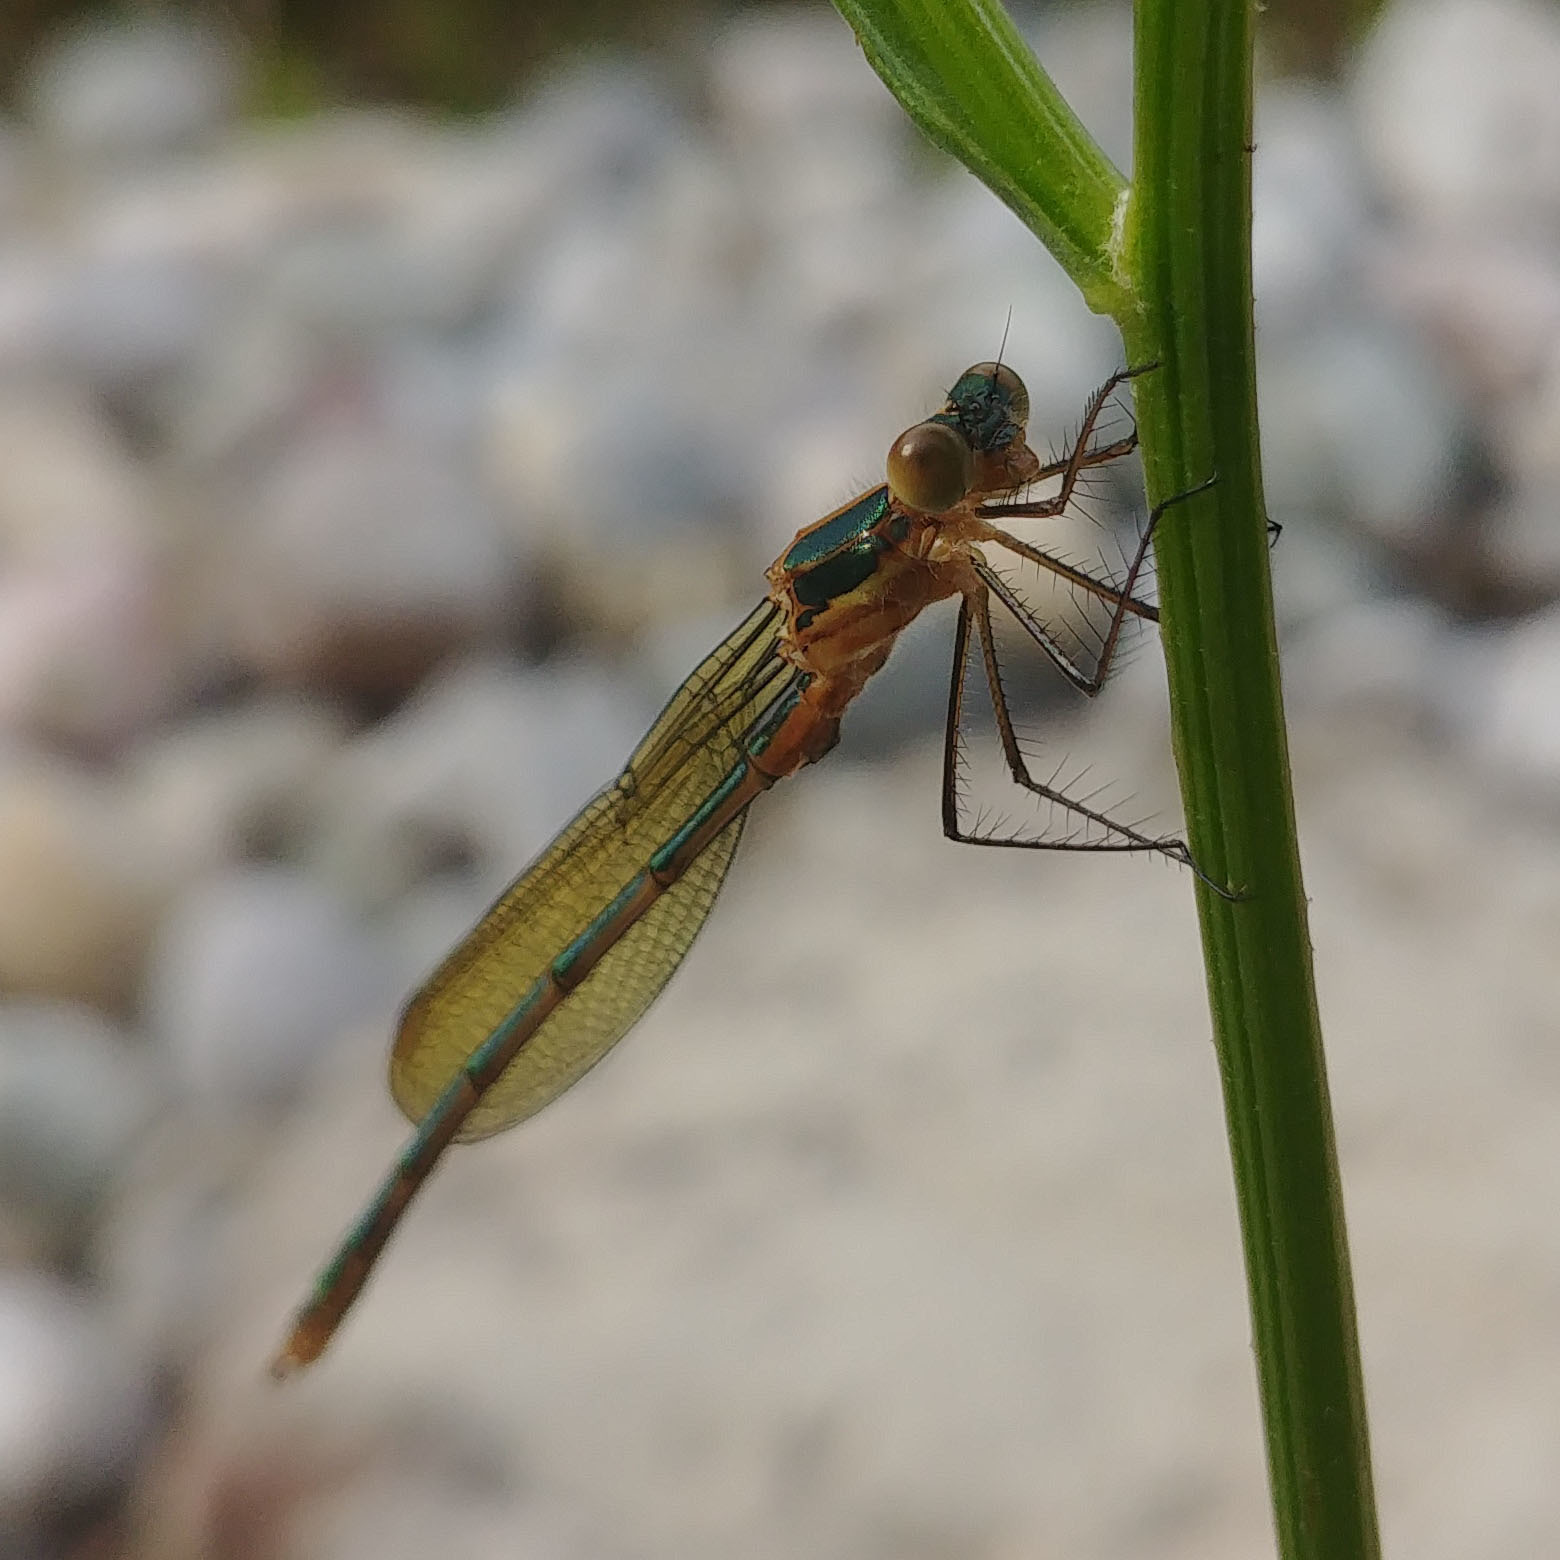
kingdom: Animalia
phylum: Arthropoda
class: Insecta
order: Odonata
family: Lestidae
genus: Lestes
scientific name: Lestes sponsa
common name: Common spreadwing
